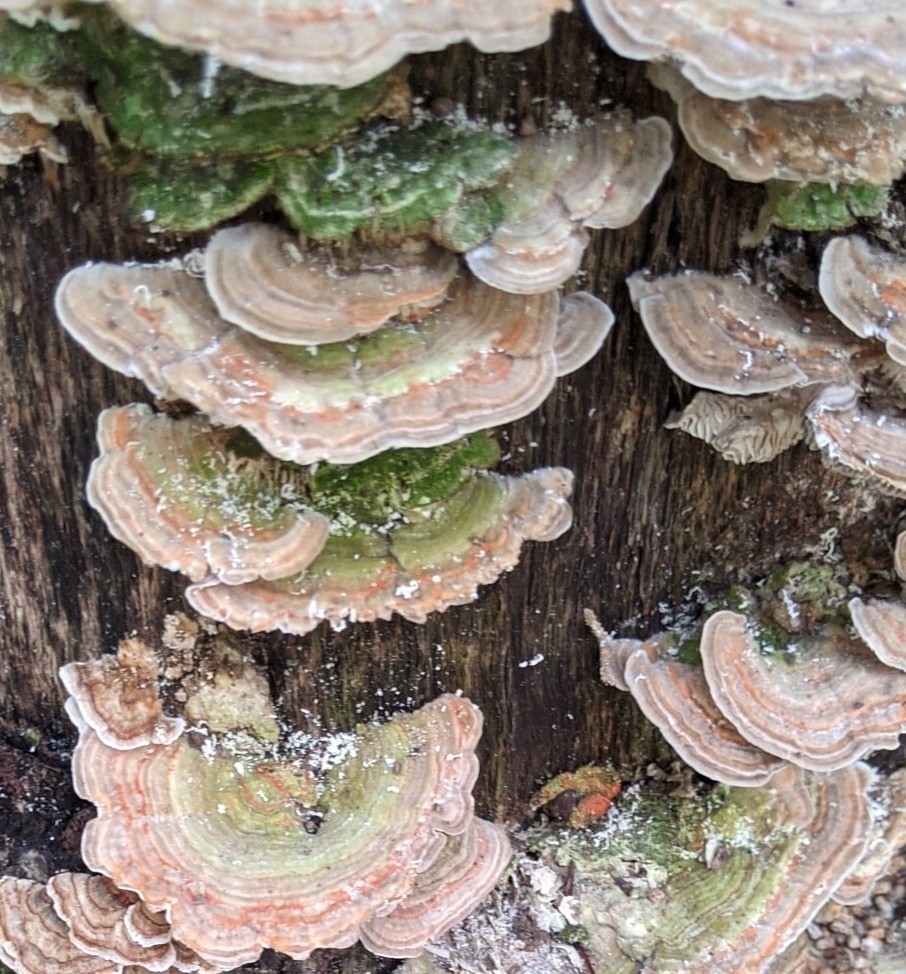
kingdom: Fungi
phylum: Basidiomycota
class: Agaricomycetes
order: Polyporales
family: Polyporaceae
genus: Lenzites
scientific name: Lenzites betulinus
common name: Birch mazegill
